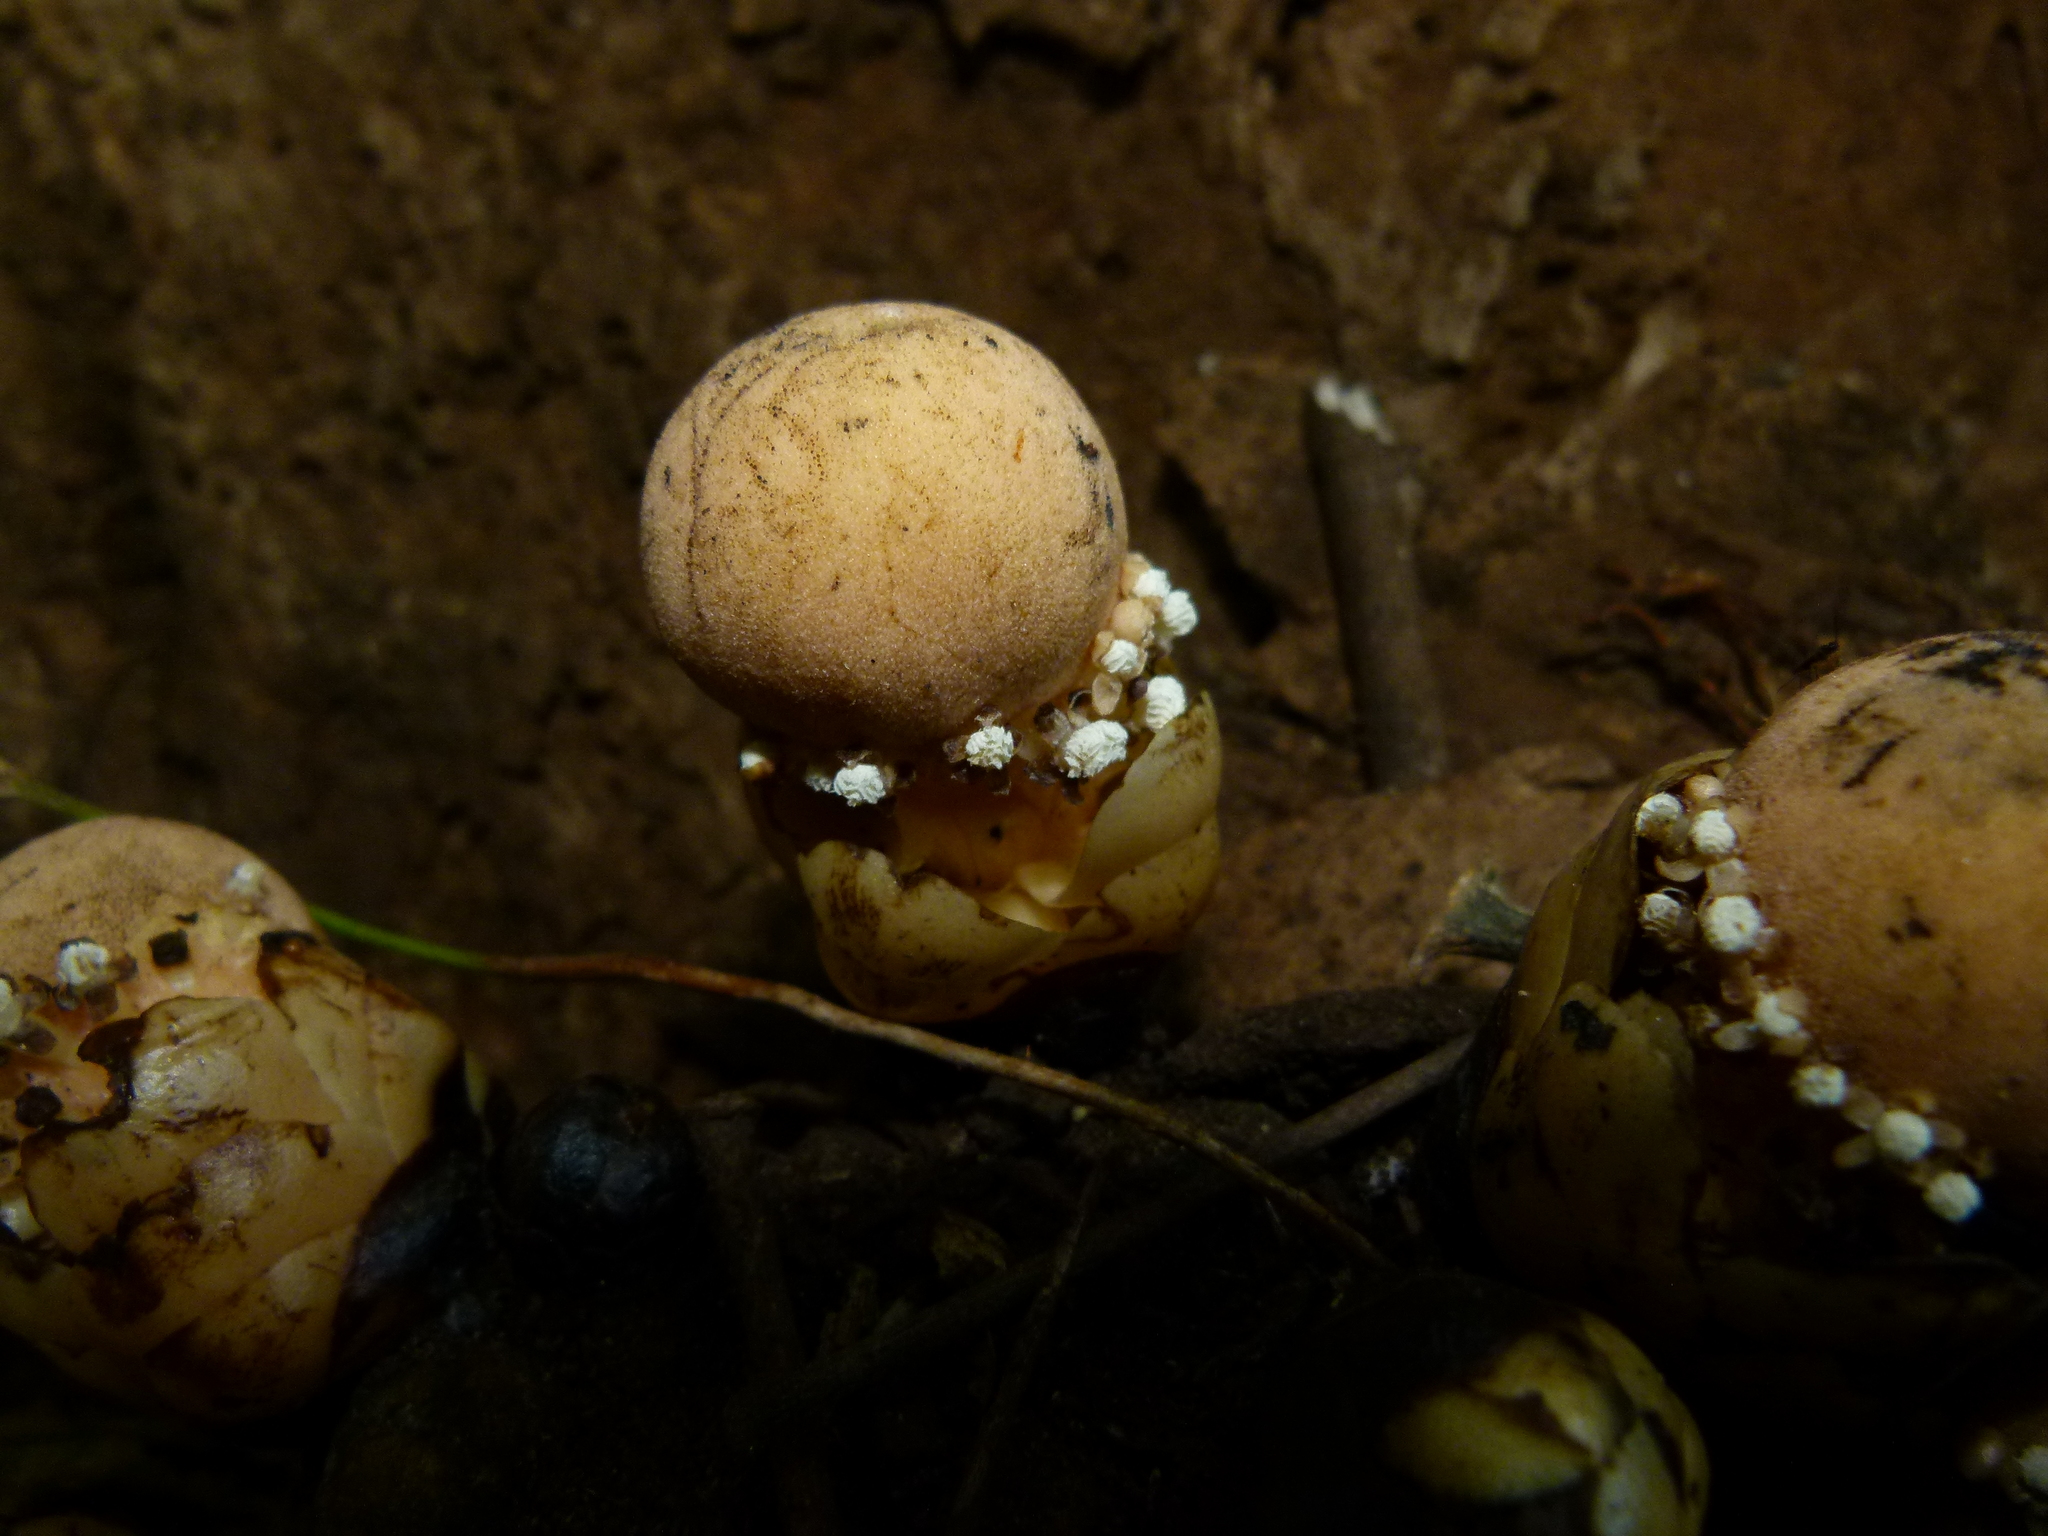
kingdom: Plantae
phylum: Tracheophyta
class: Magnoliopsida
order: Santalales
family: Balanophoraceae
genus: Balanophora
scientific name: Balanophora fungosa
